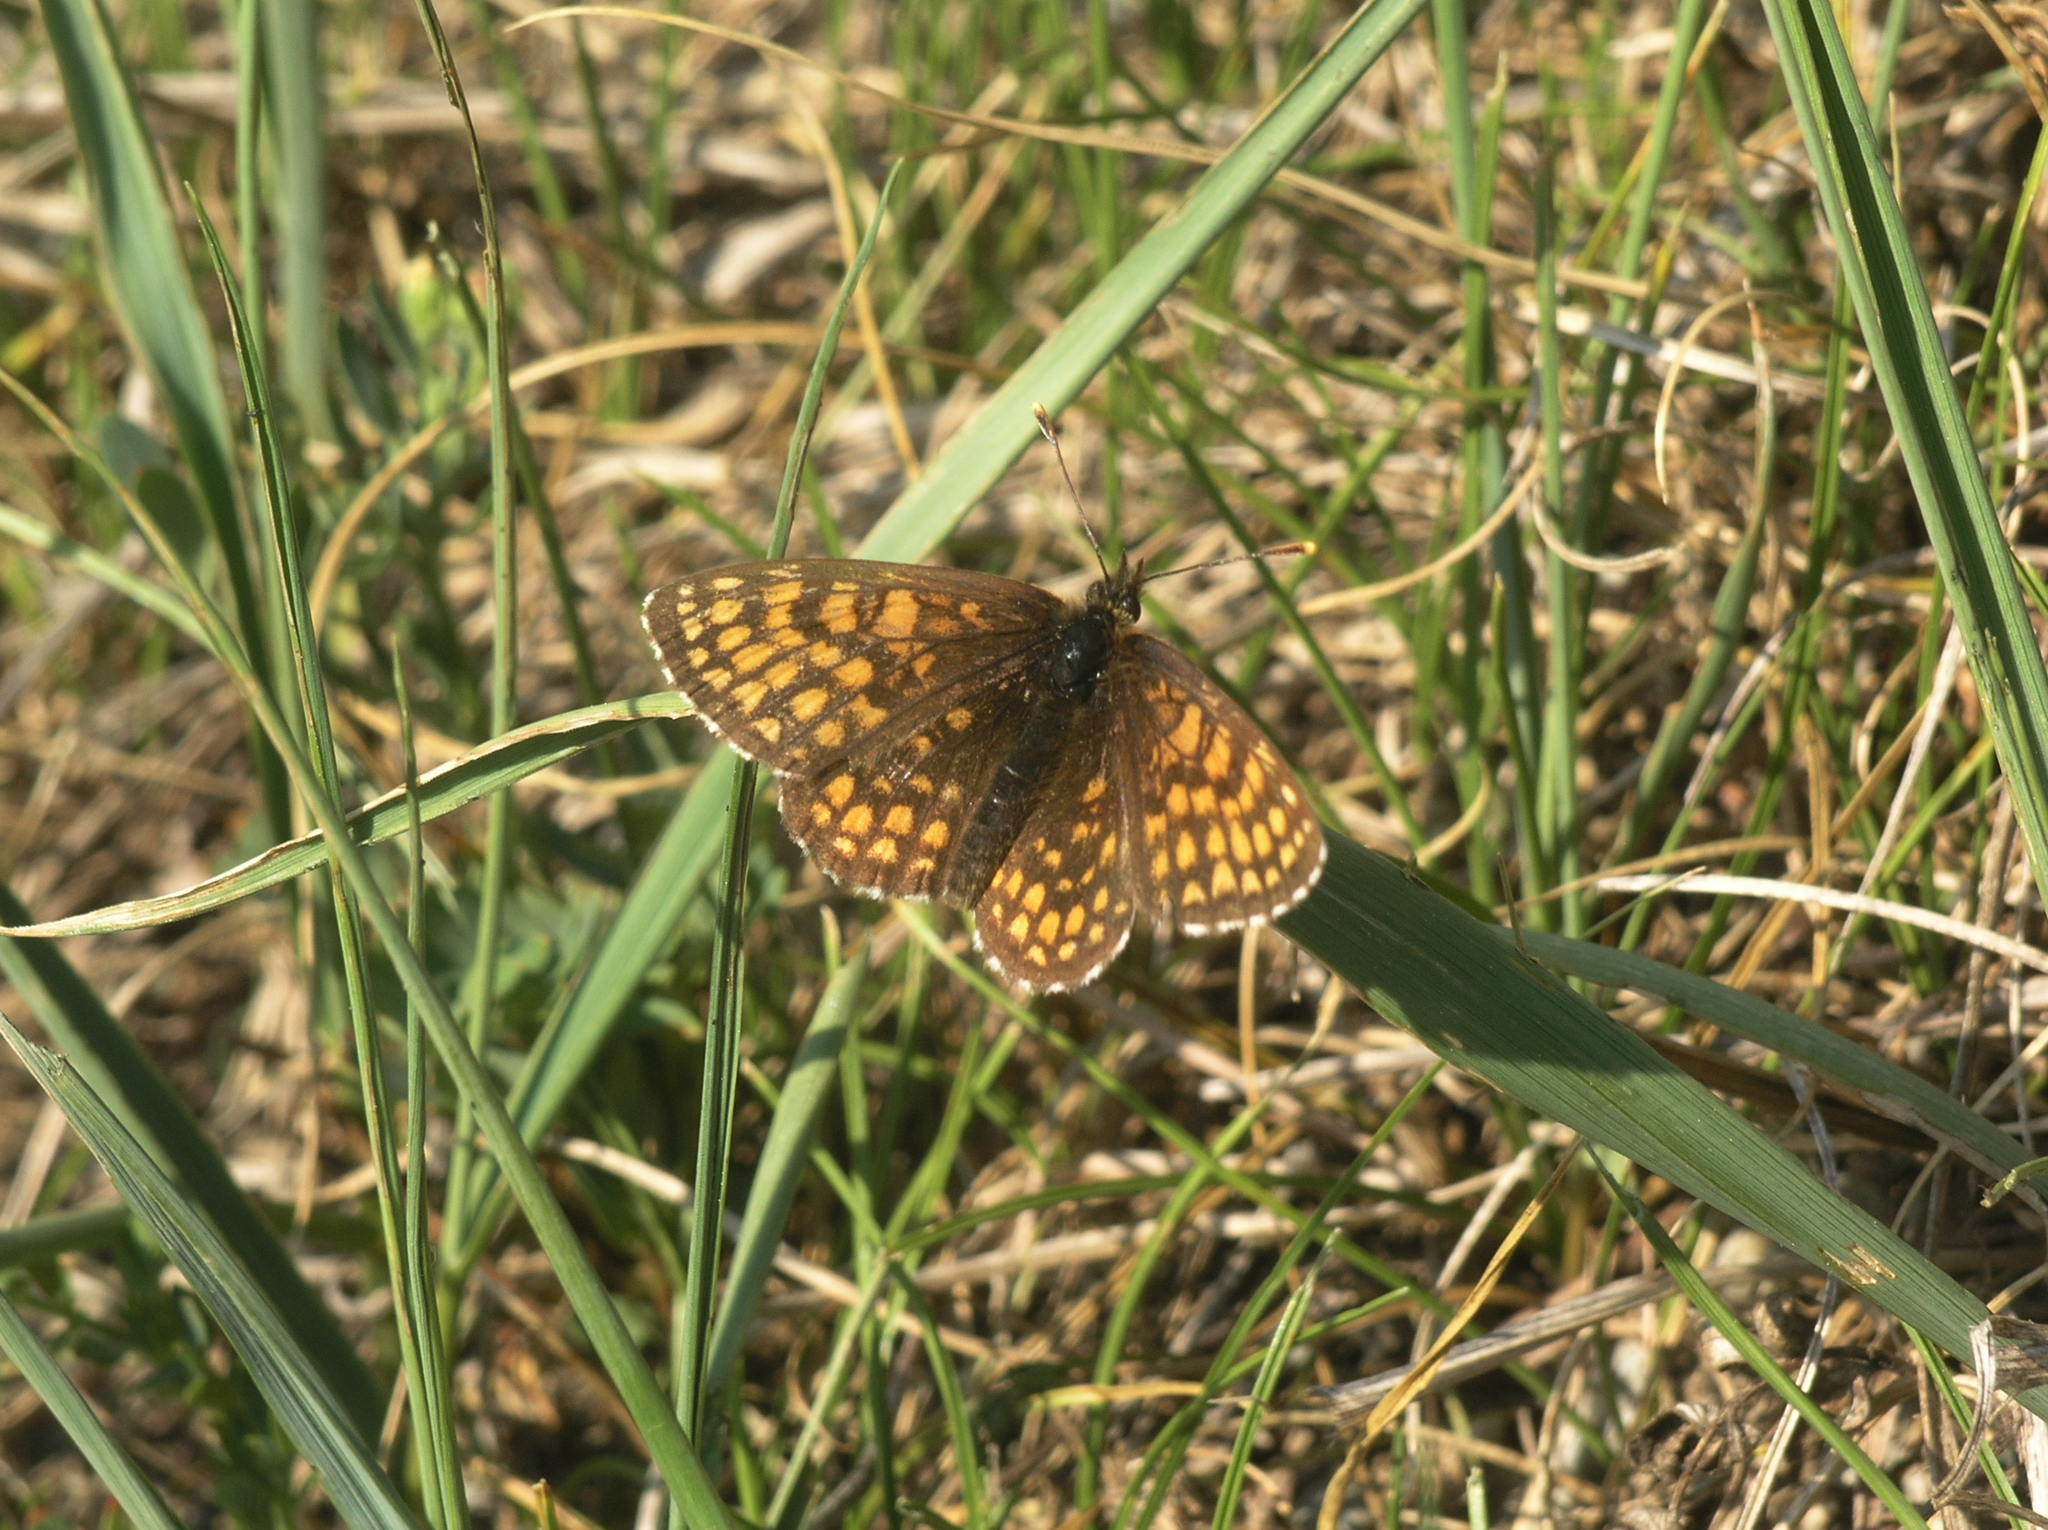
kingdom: Animalia
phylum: Arthropoda
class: Insecta
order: Lepidoptera
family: Nymphalidae
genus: Mellicta
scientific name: Mellicta menetriesi
